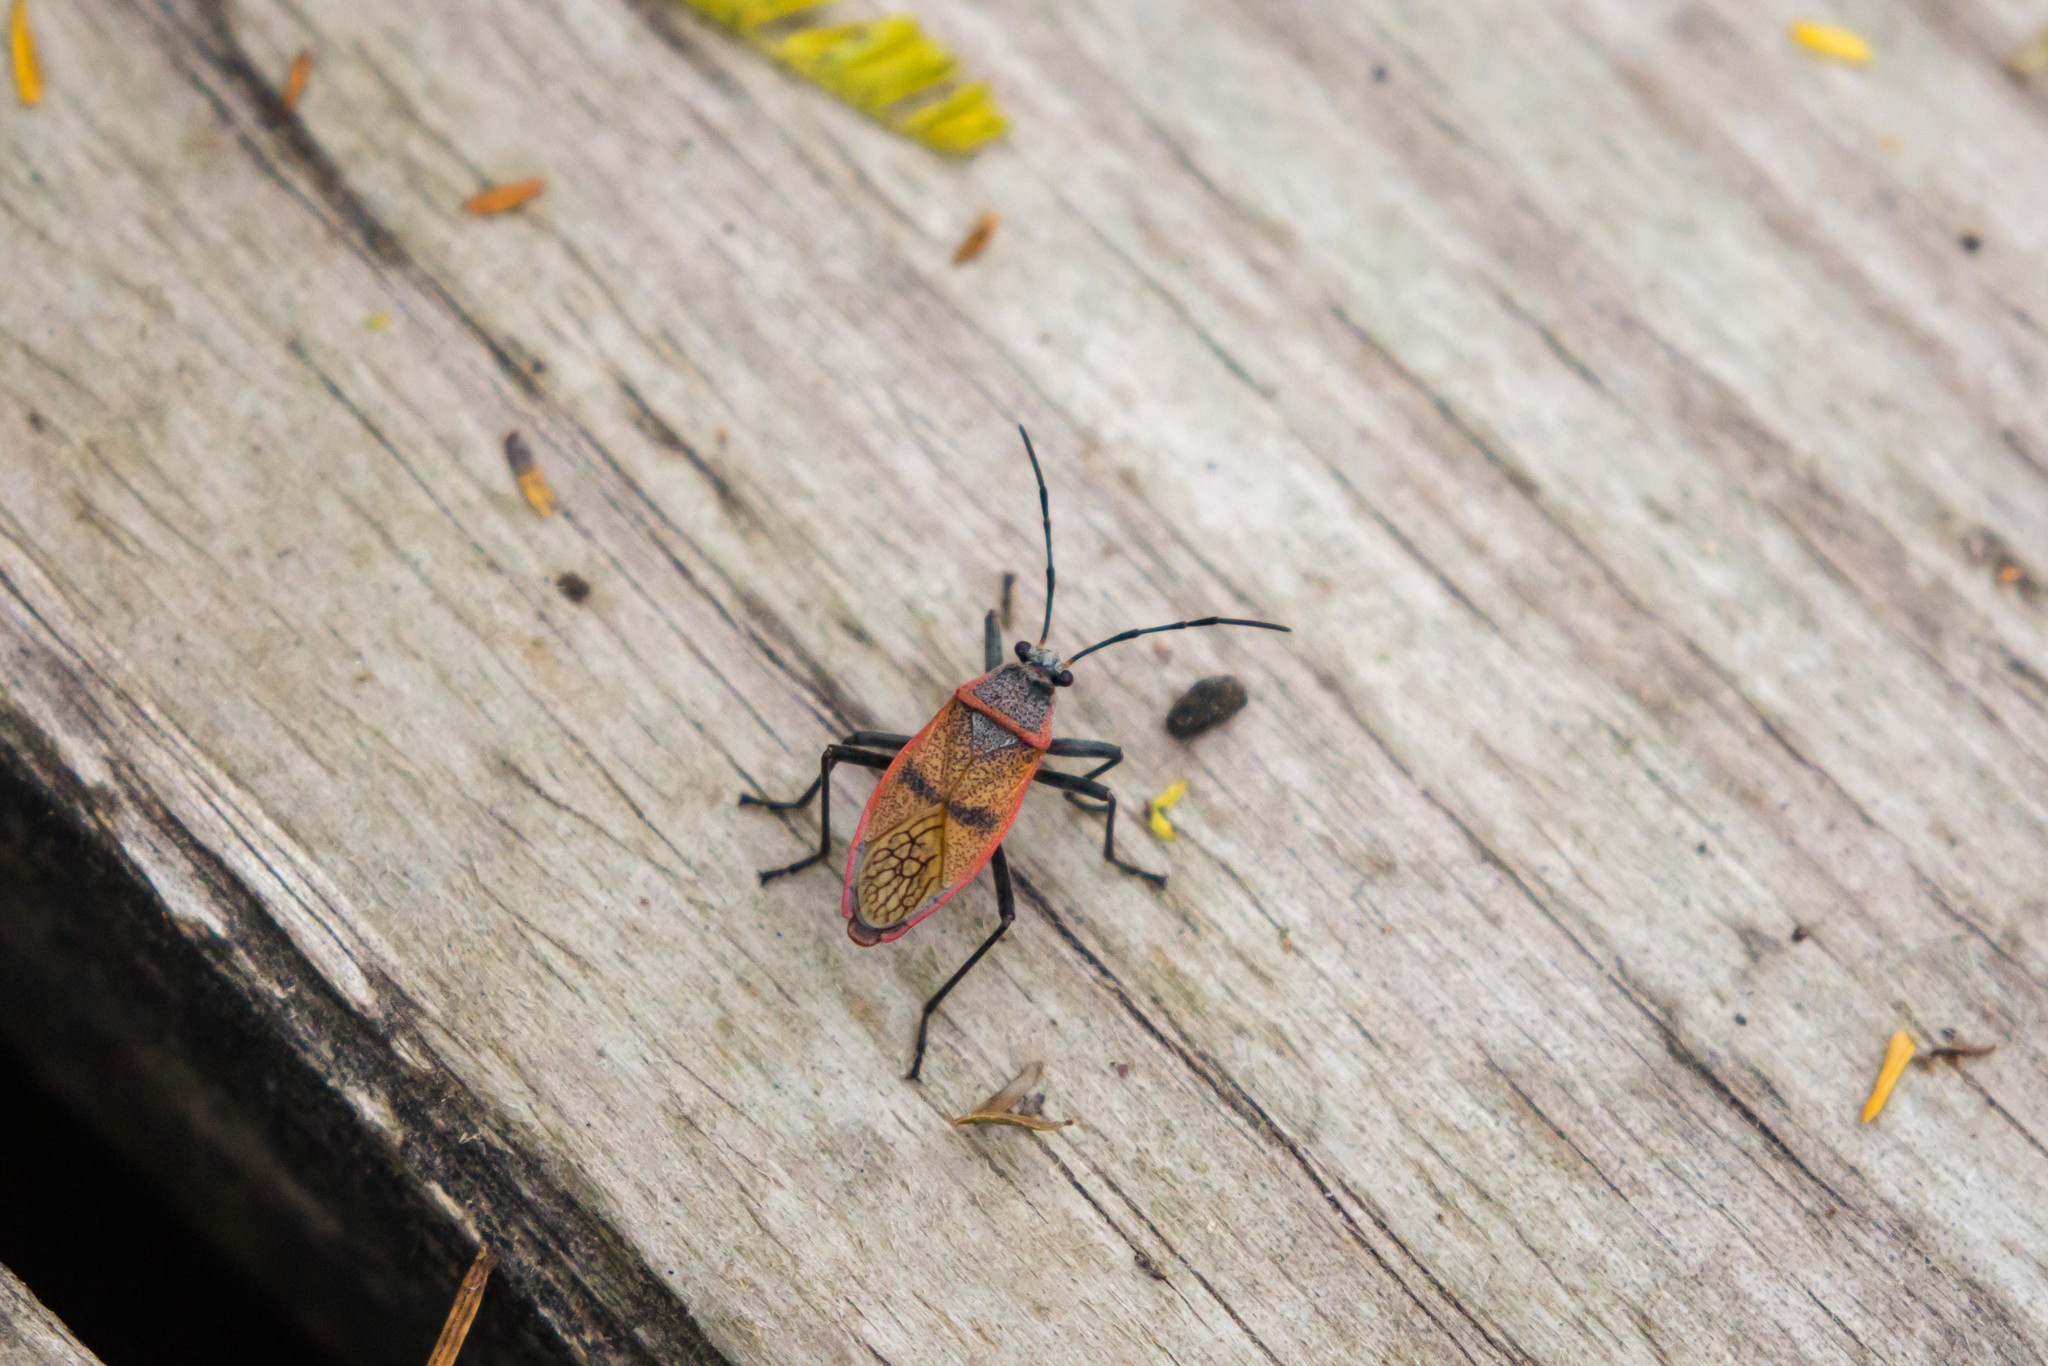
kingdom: Animalia
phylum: Arthropoda
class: Insecta
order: Hemiptera
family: Largidae
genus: Largus
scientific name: Largus maculatus
